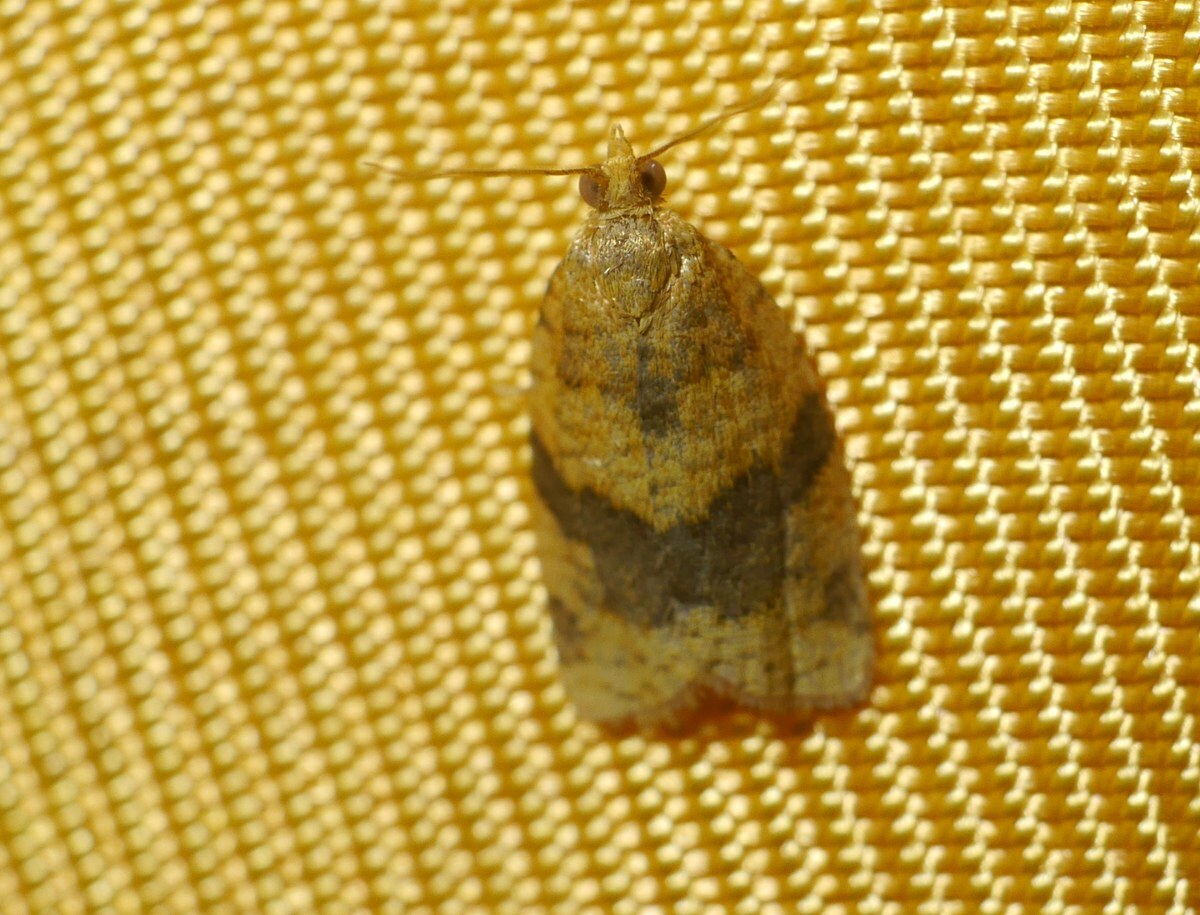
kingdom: Animalia
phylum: Arthropoda
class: Insecta
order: Lepidoptera
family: Tortricidae
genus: Epagoge
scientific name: Epagoge grotiana
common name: Brown-barred twist
